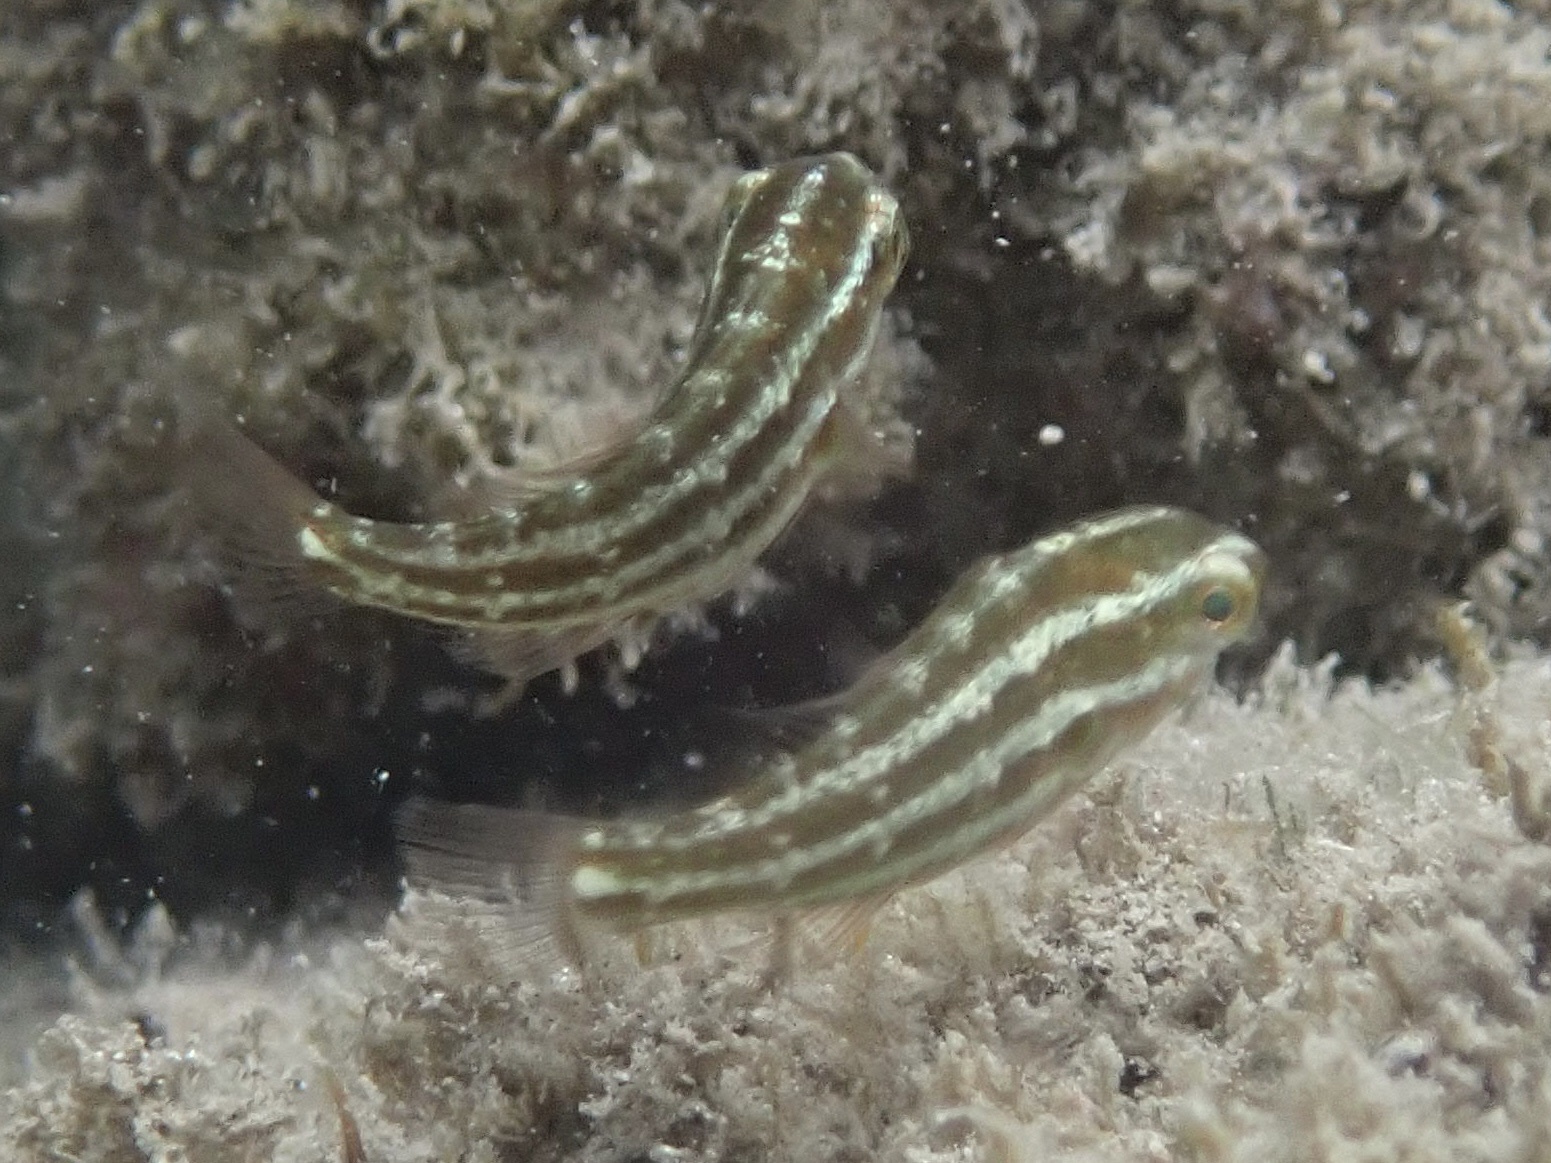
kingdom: Animalia
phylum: Chordata
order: Perciformes
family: Scaridae
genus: Chlorurus
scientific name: Chlorurus spilurus
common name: Bullethead parrotfish
